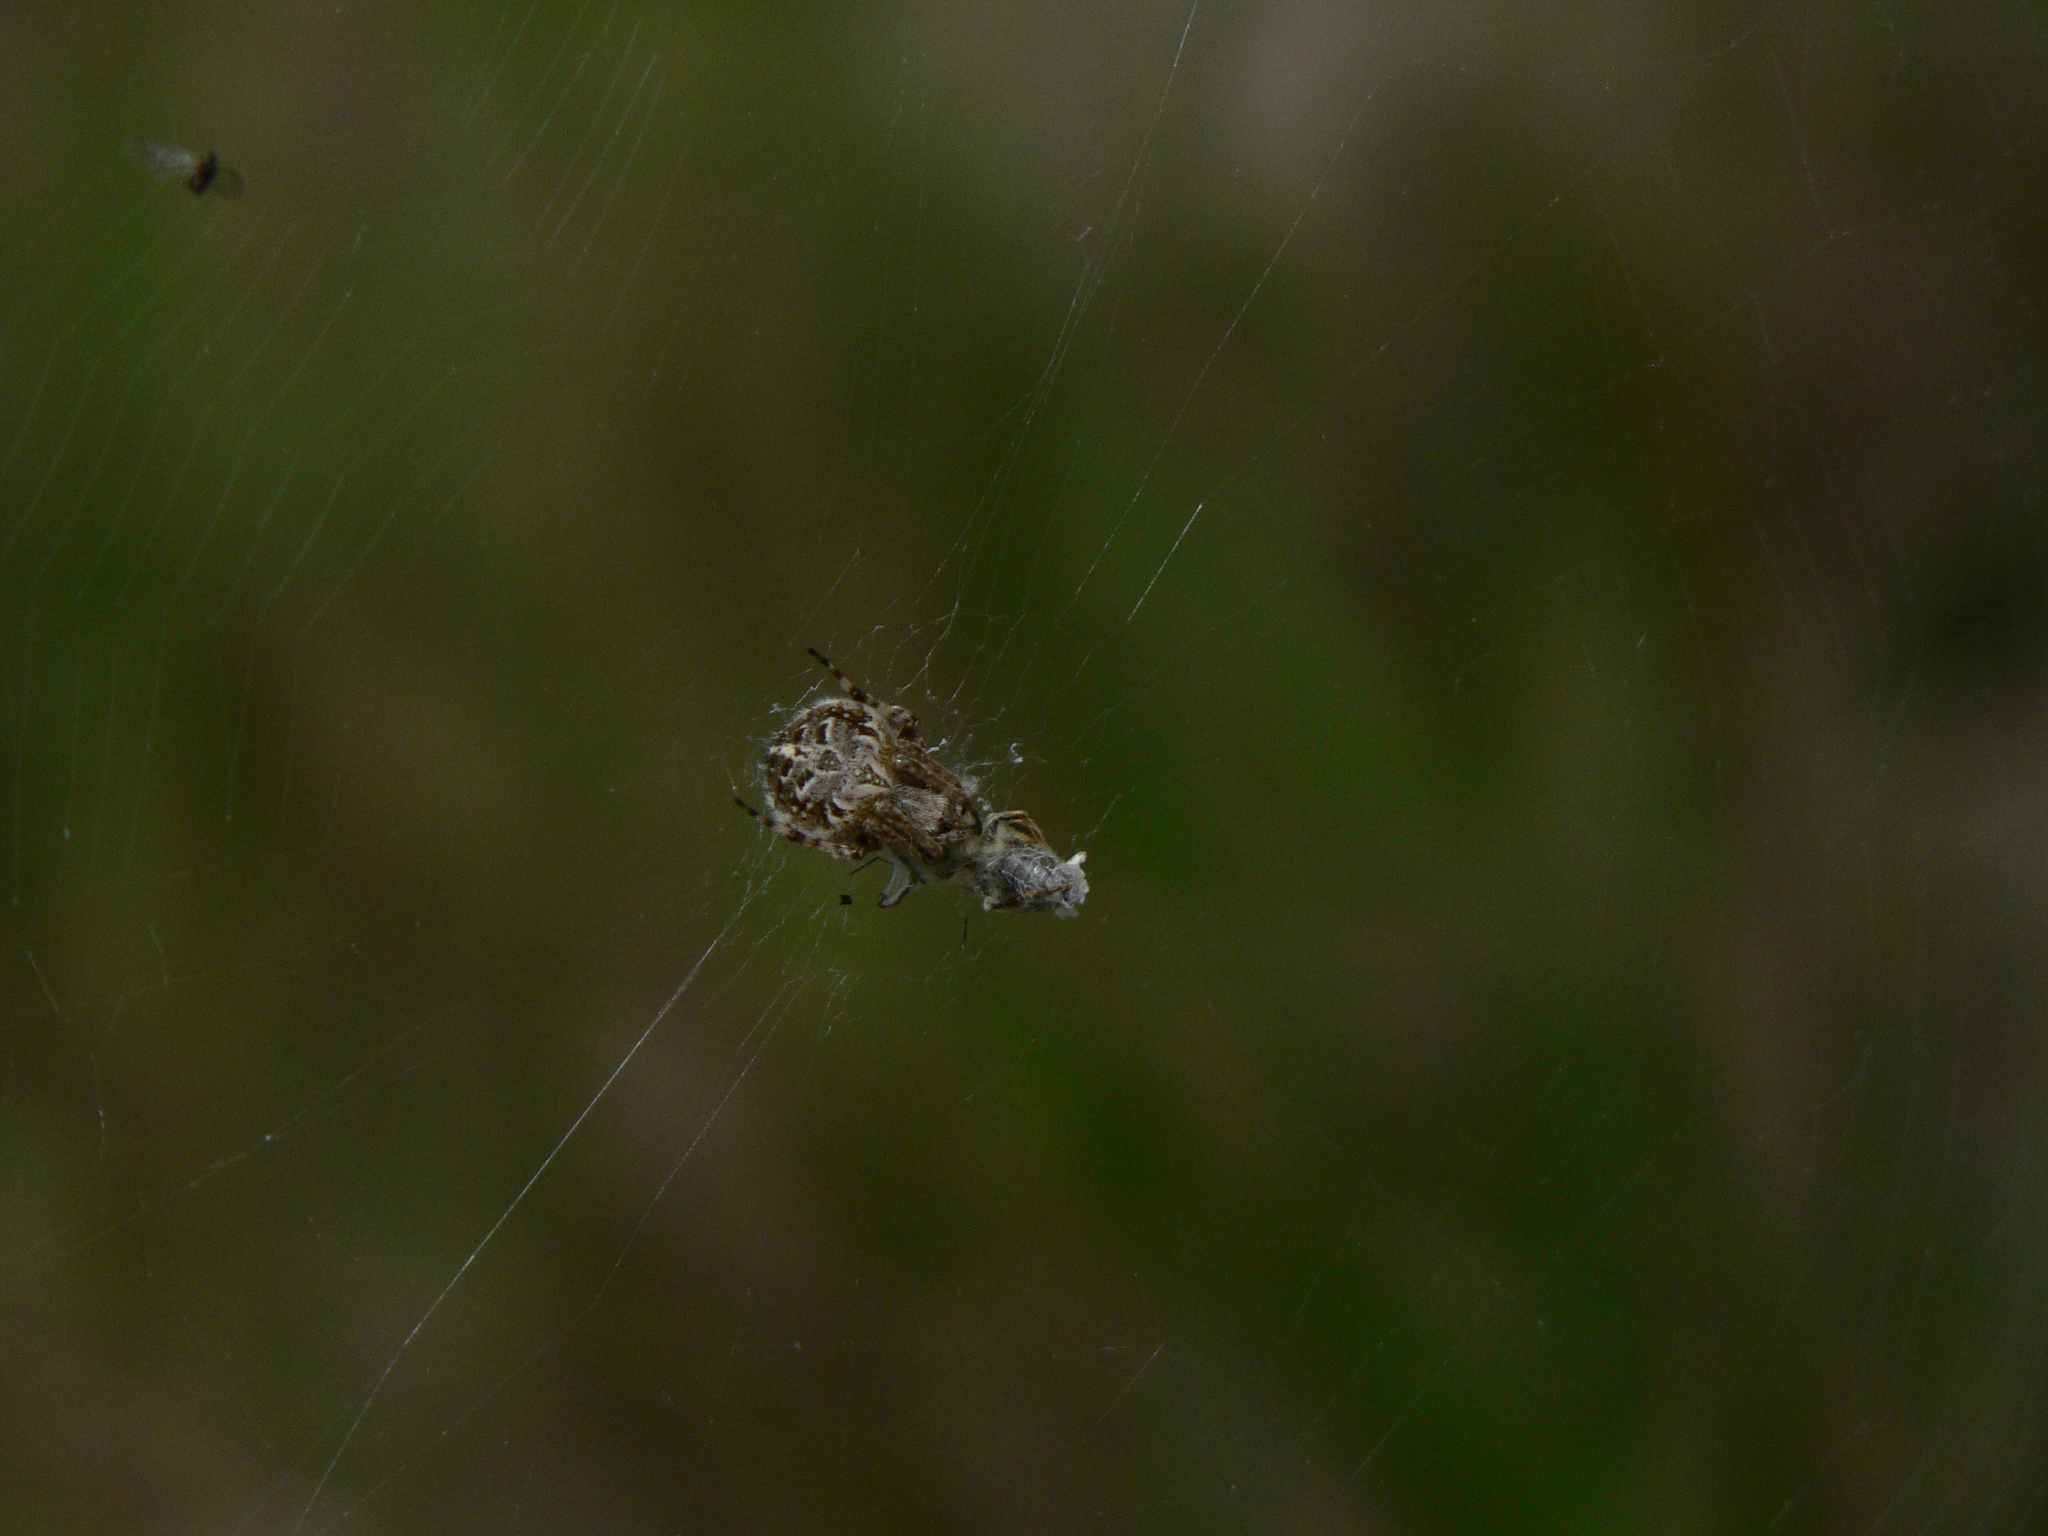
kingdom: Animalia
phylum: Arthropoda
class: Arachnida
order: Araneae
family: Araneidae
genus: Agalenatea
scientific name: Agalenatea redii
